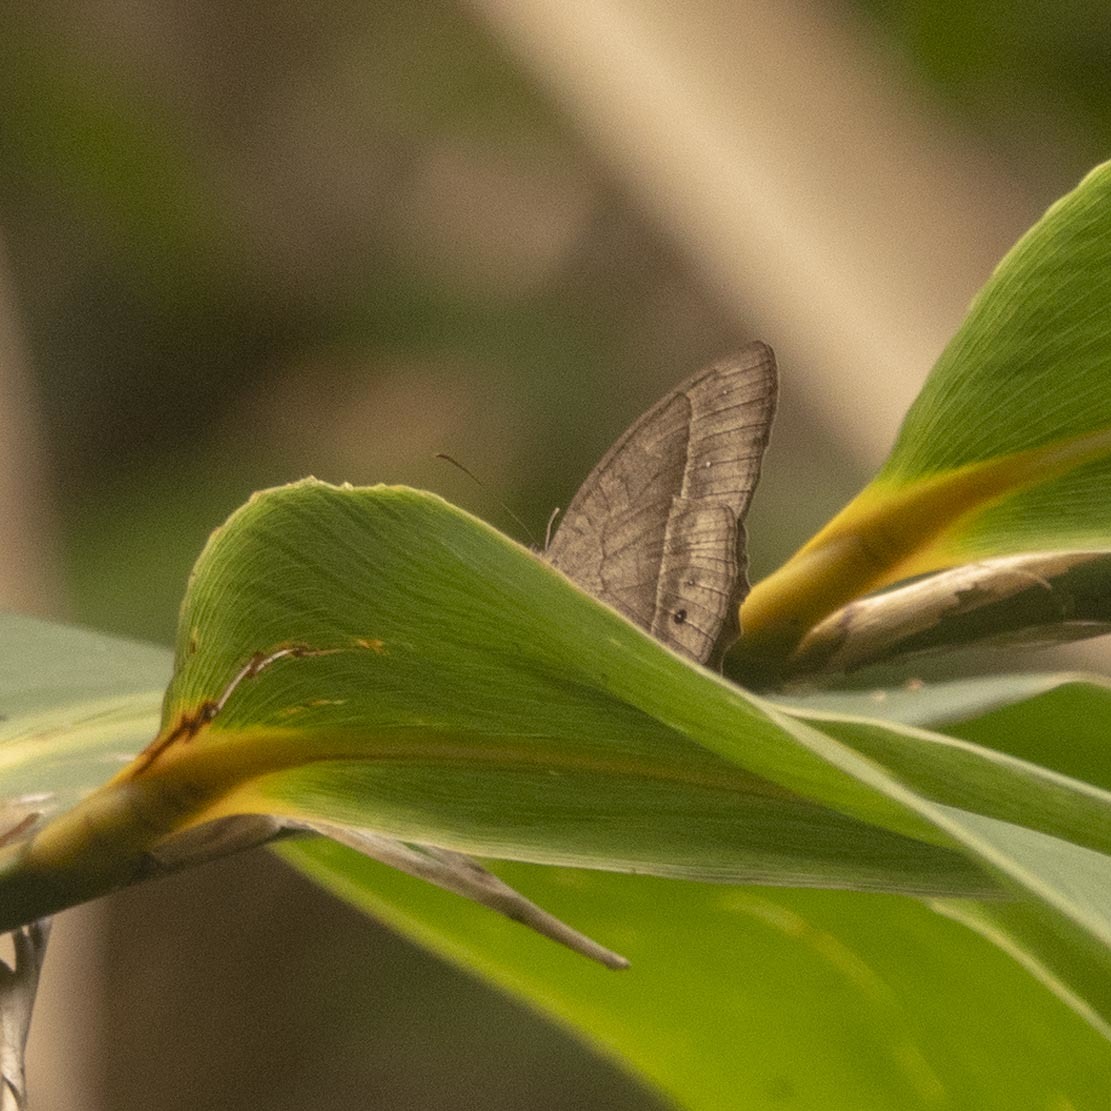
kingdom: Animalia
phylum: Arthropoda
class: Insecta
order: Lepidoptera
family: Nymphalidae
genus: Mycalesis
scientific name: Mycalesis mineus
